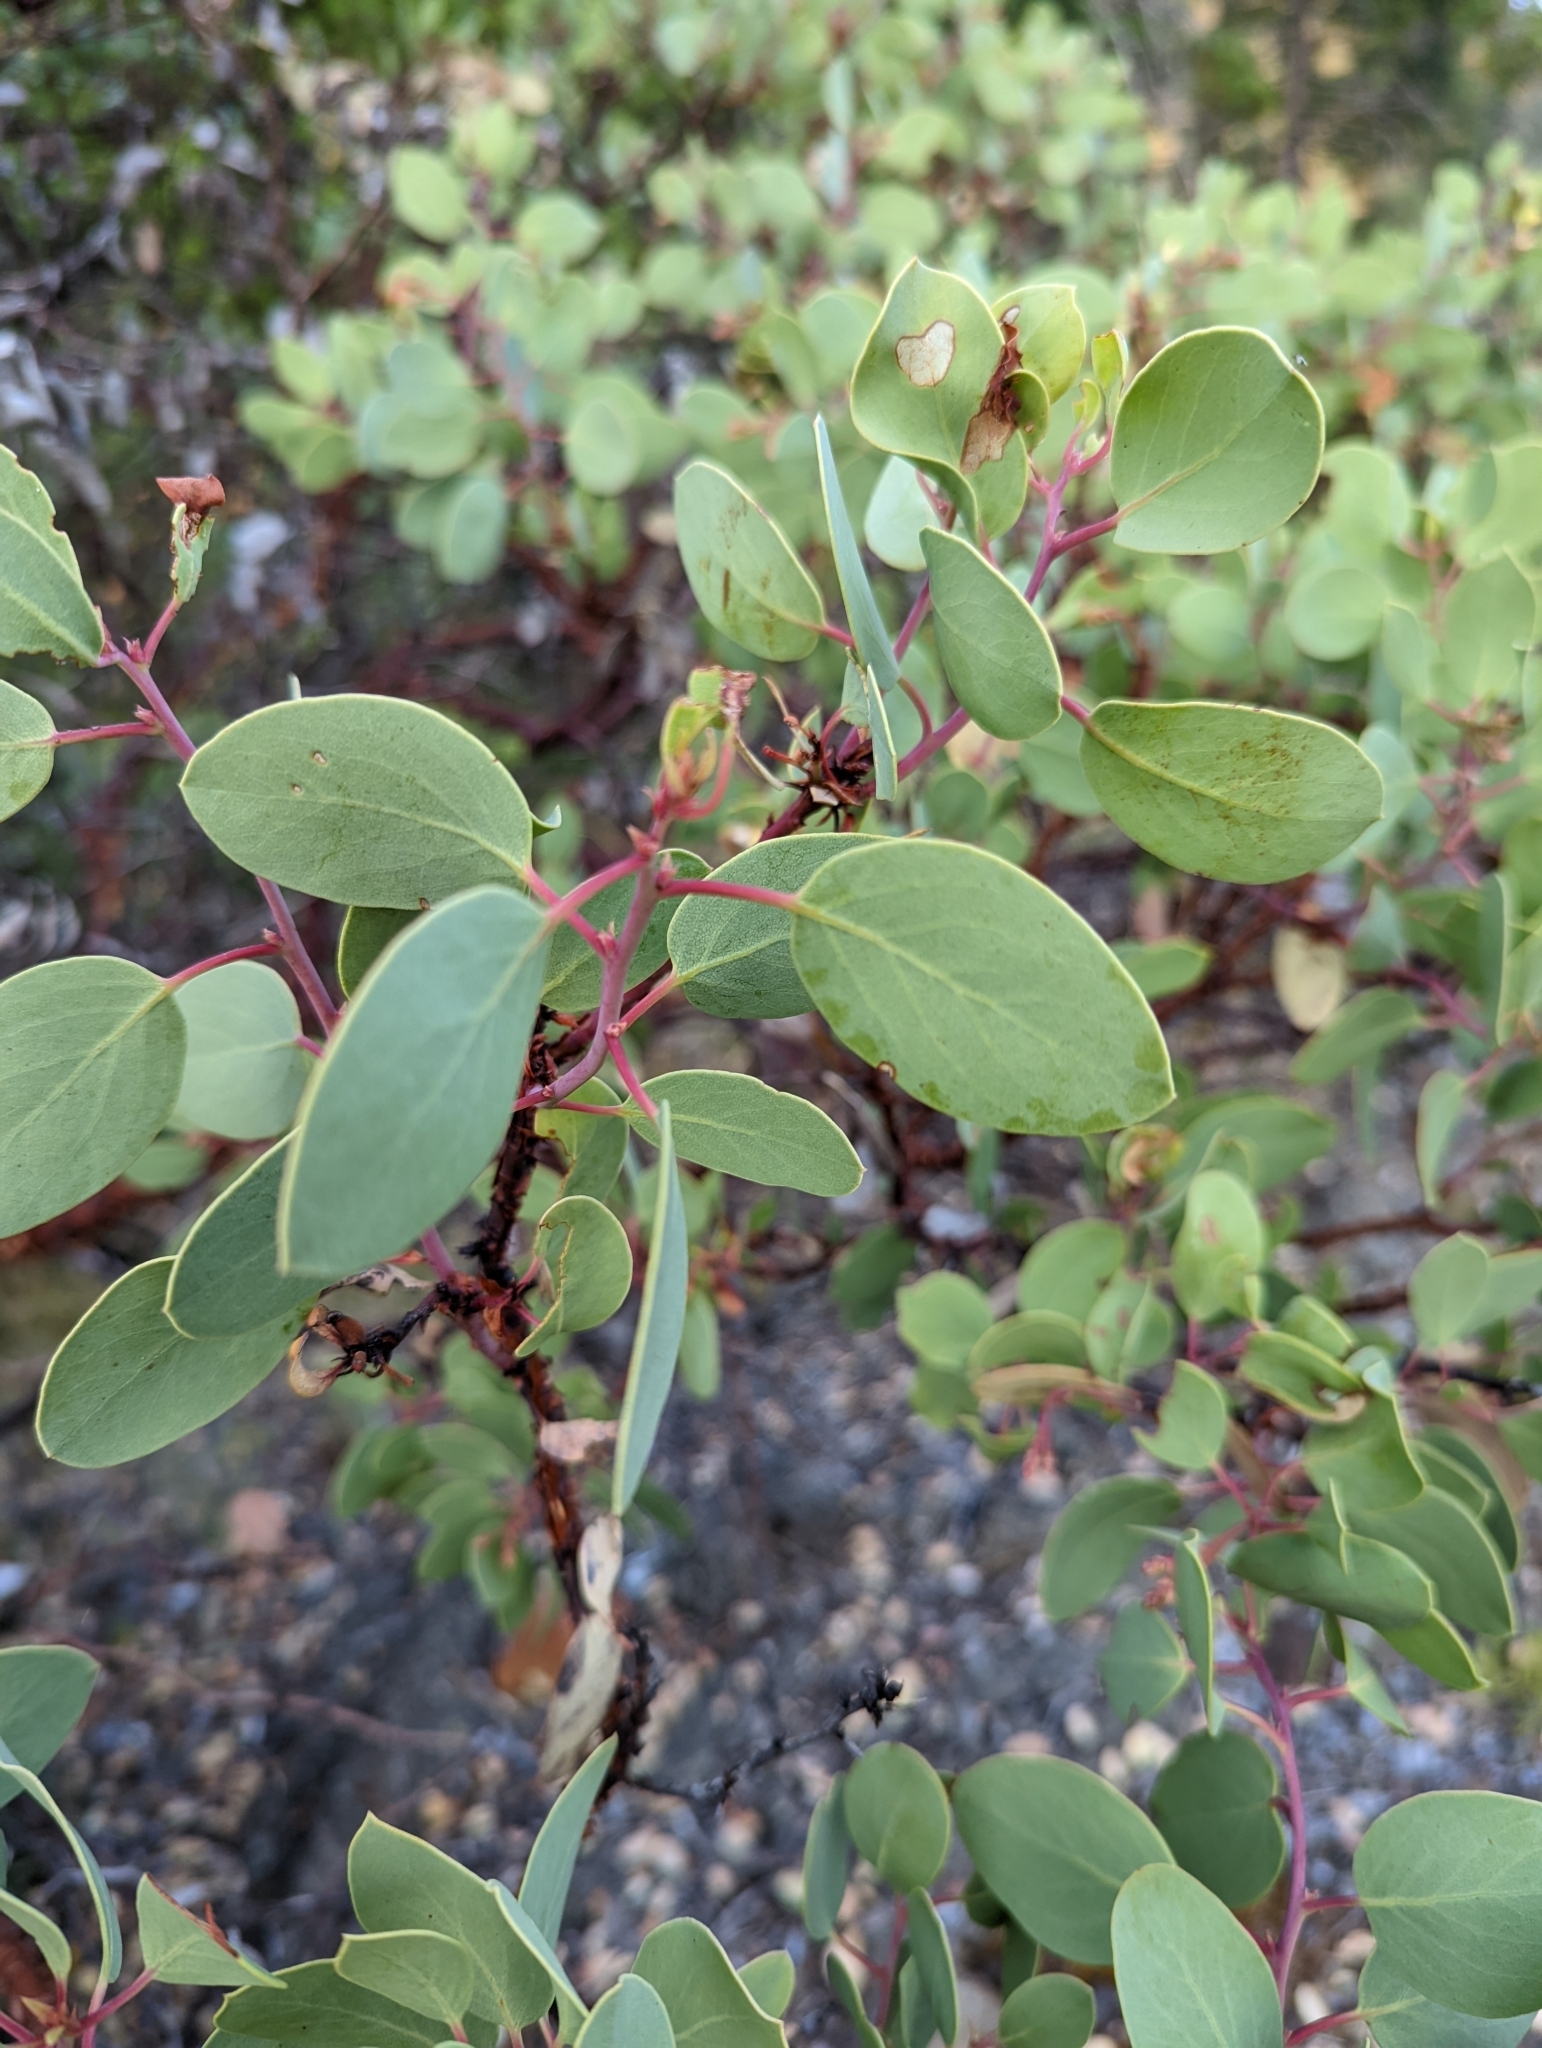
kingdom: Plantae
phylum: Tracheophyta
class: Magnoliopsida
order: Ericales
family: Ericaceae
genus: Arctostaphylos
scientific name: Arctostaphylos viscida
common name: White-leaf manzanita
